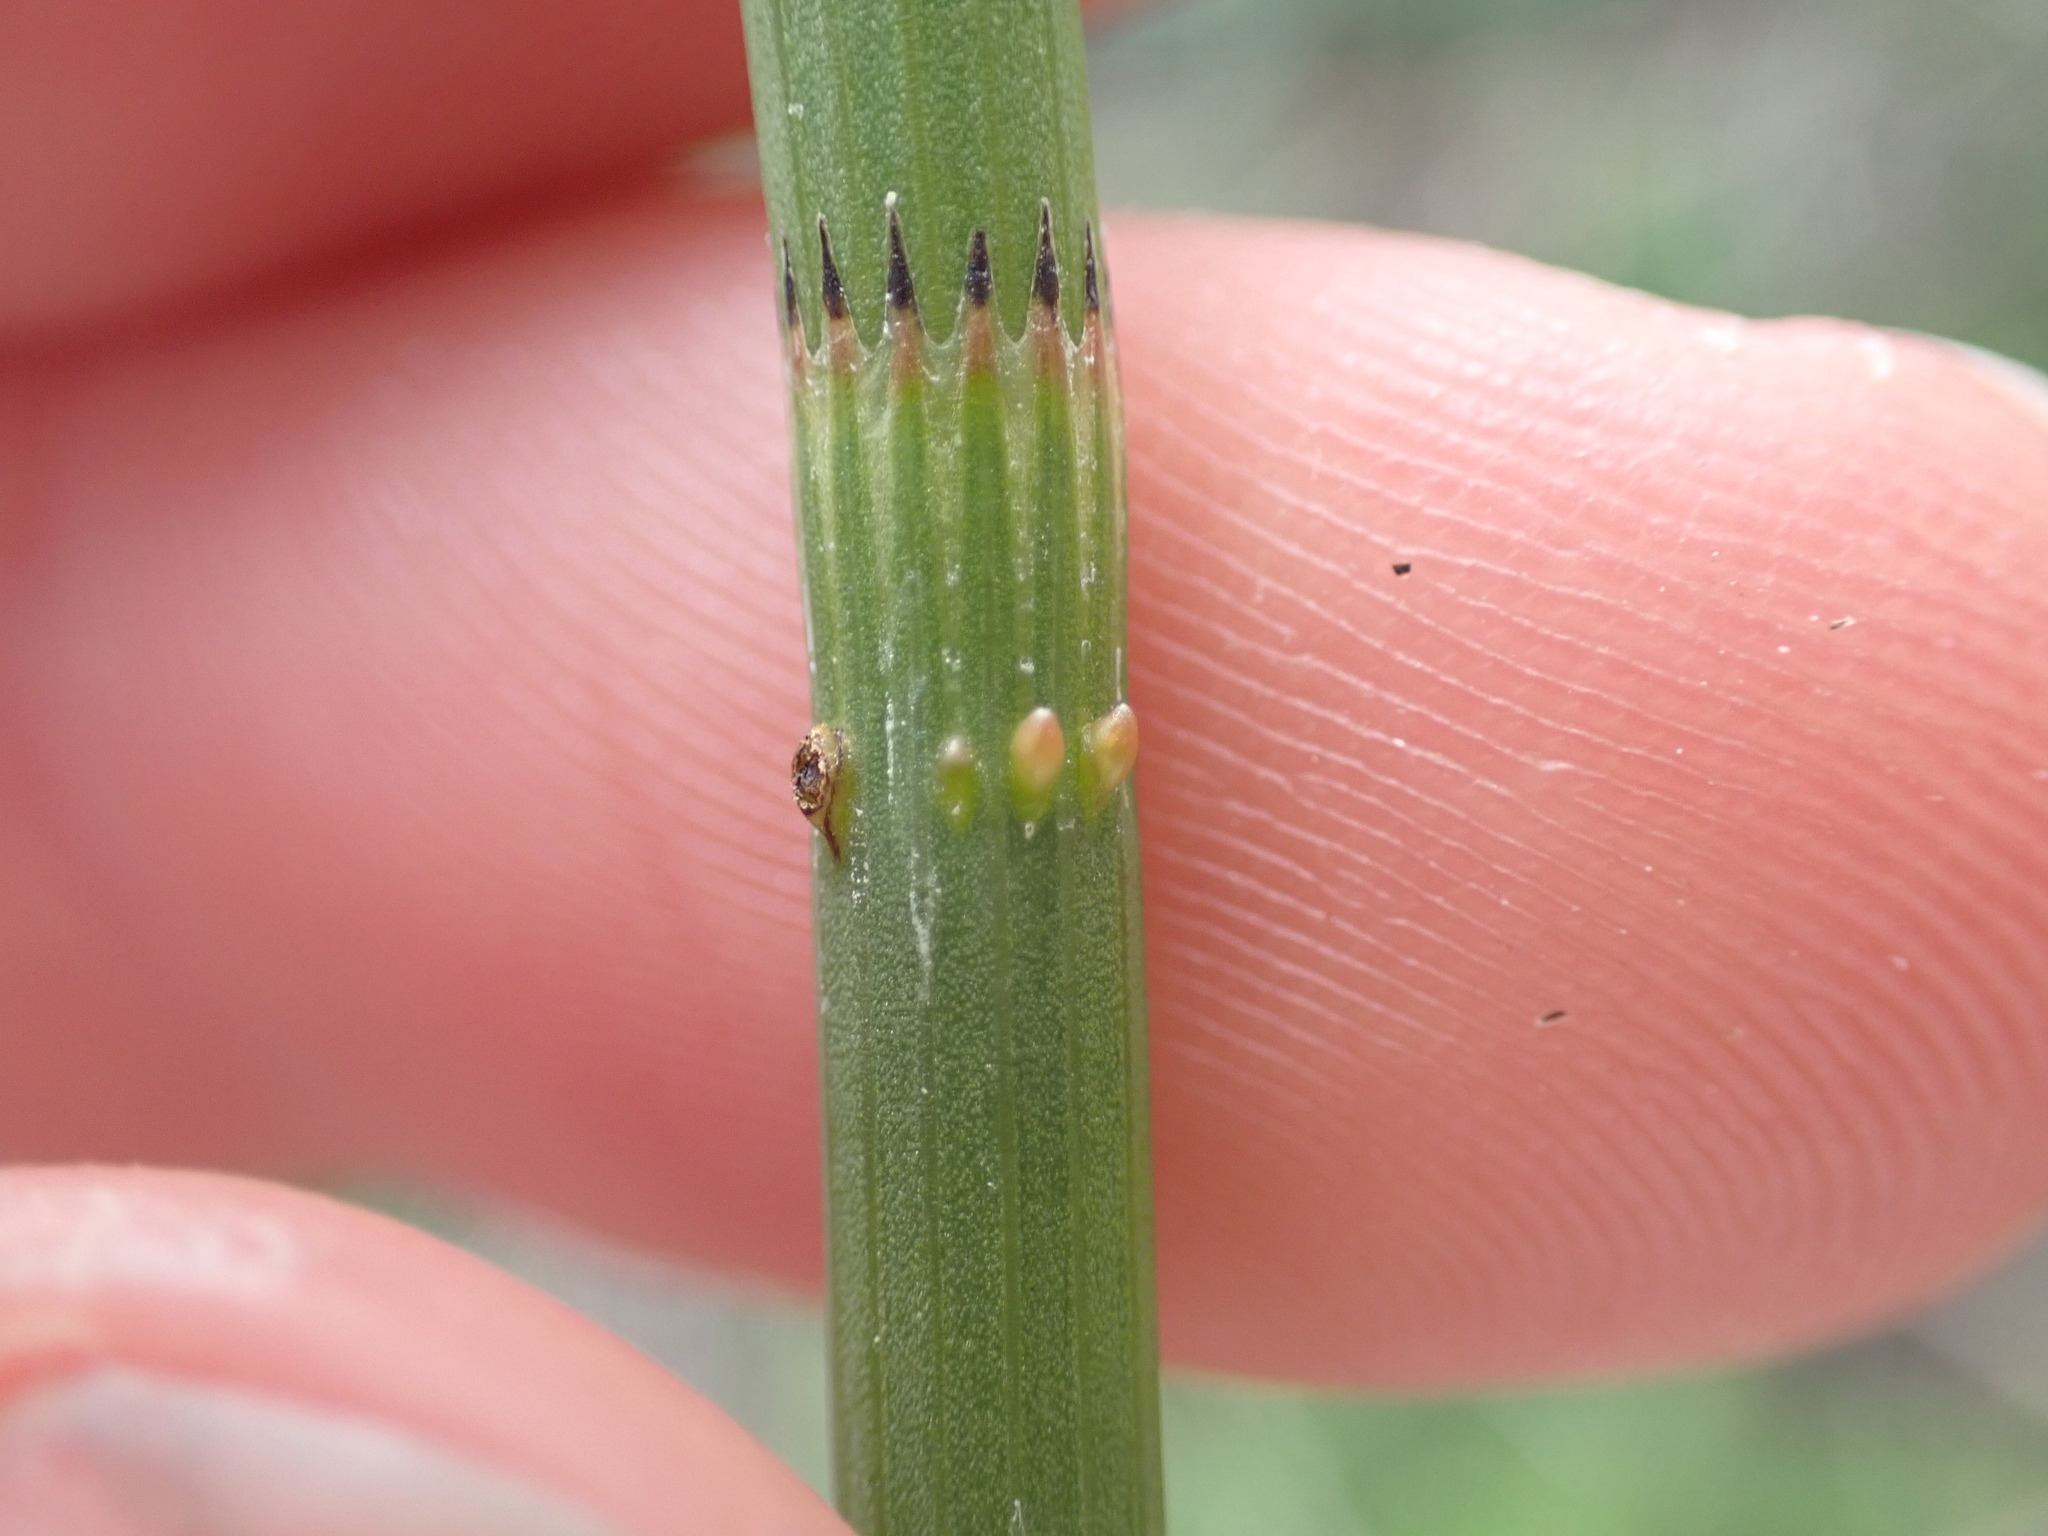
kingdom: Plantae
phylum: Tracheophyta
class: Polypodiopsida
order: Equisetales
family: Equisetaceae
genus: Equisetum
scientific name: Equisetum fluviatile
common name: Water horsetail
